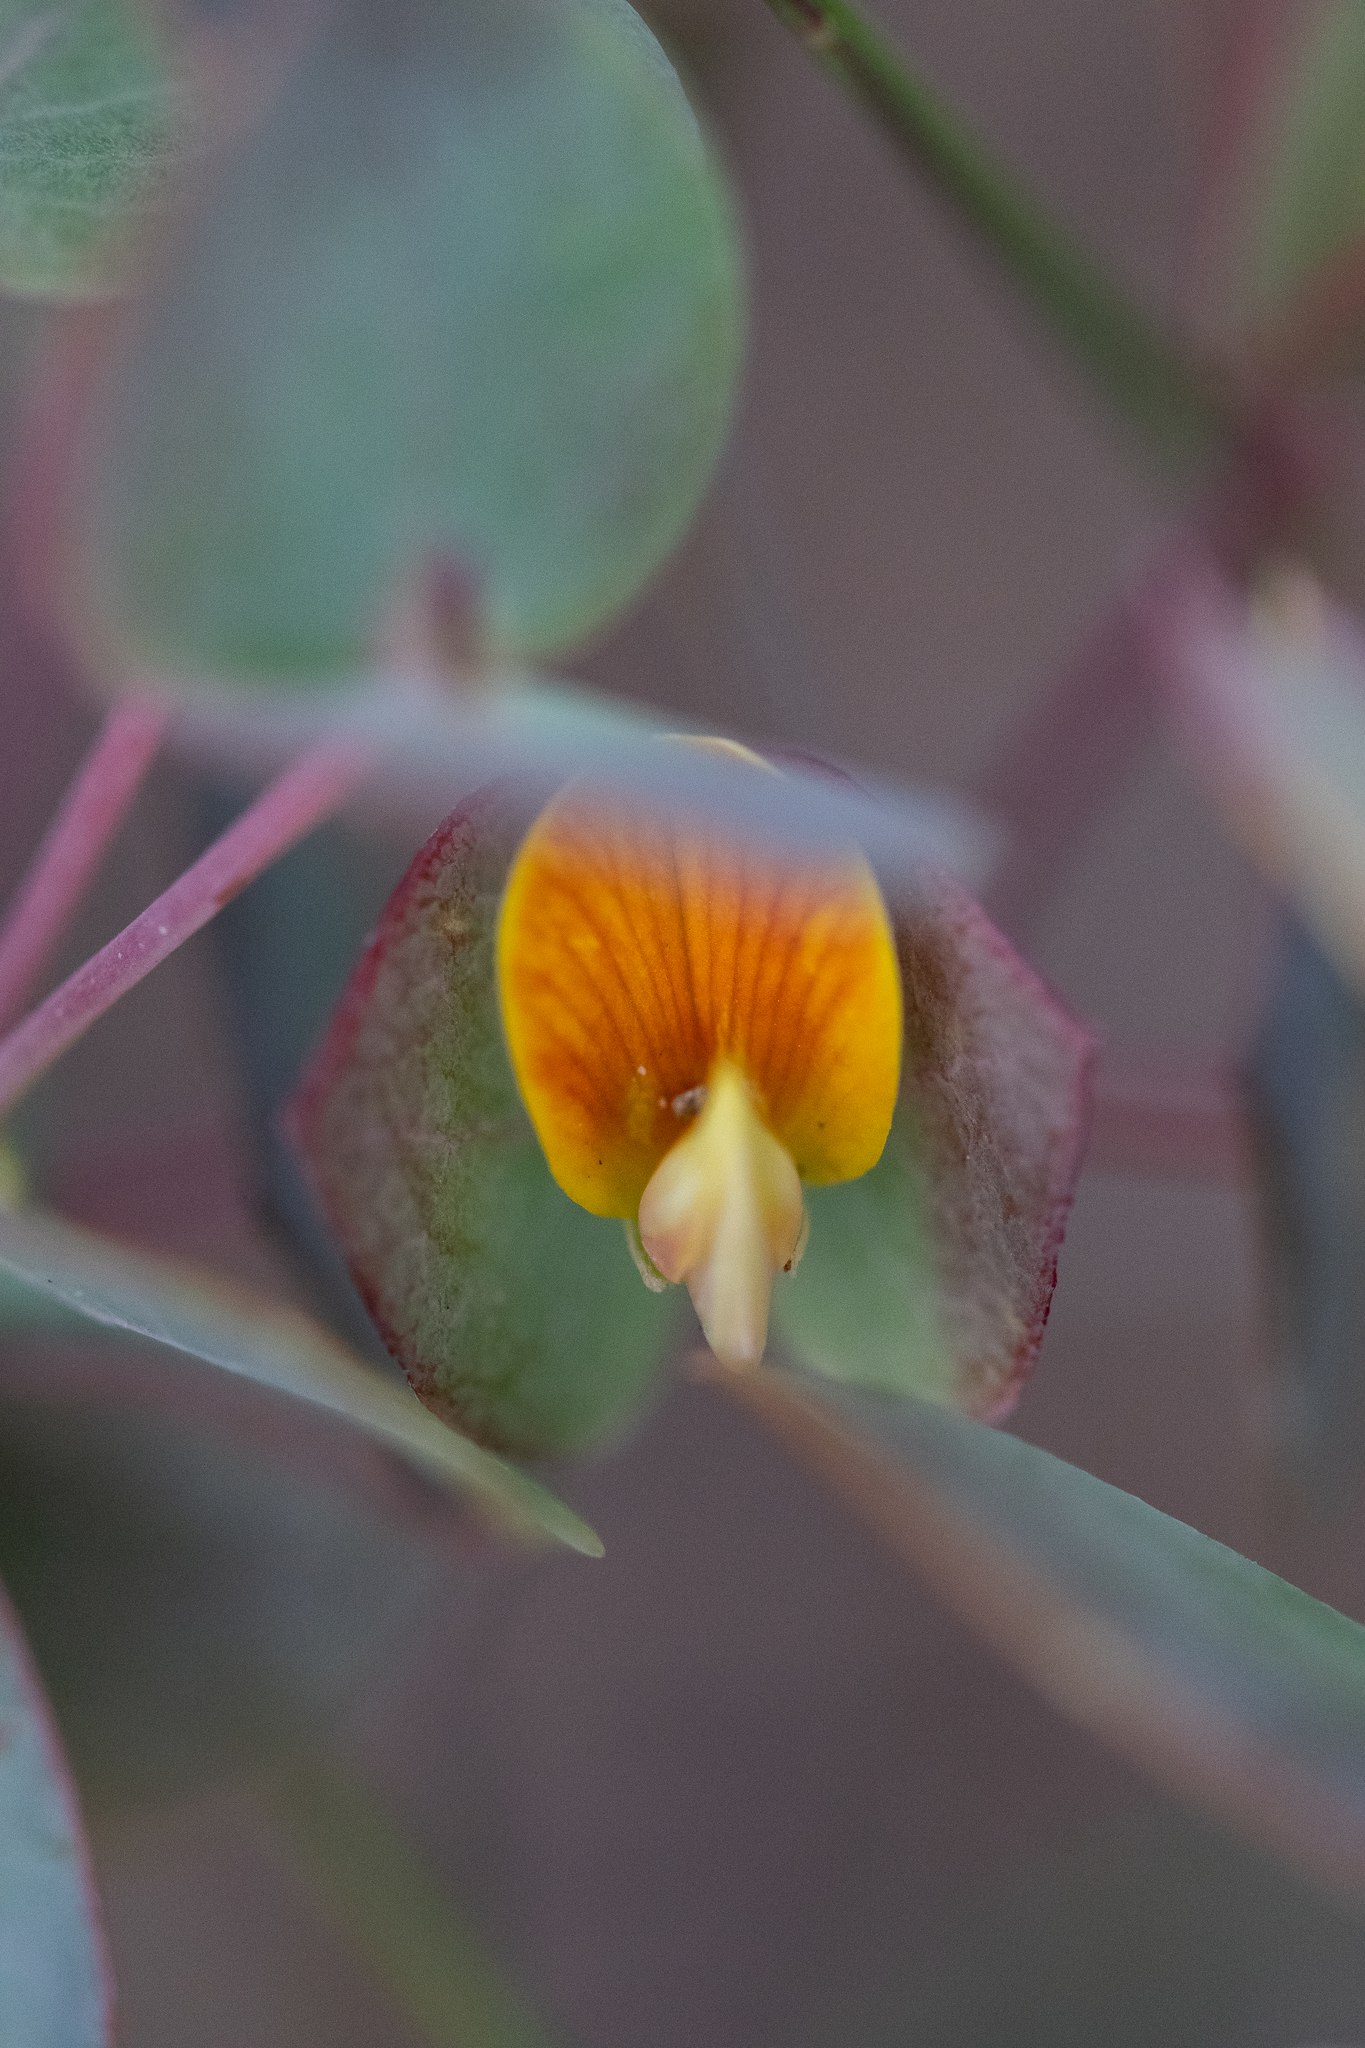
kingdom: Plantae
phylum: Tracheophyta
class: Magnoliopsida
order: Fabales
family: Fabaceae
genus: Rafnia
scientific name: Rafnia acuminata
